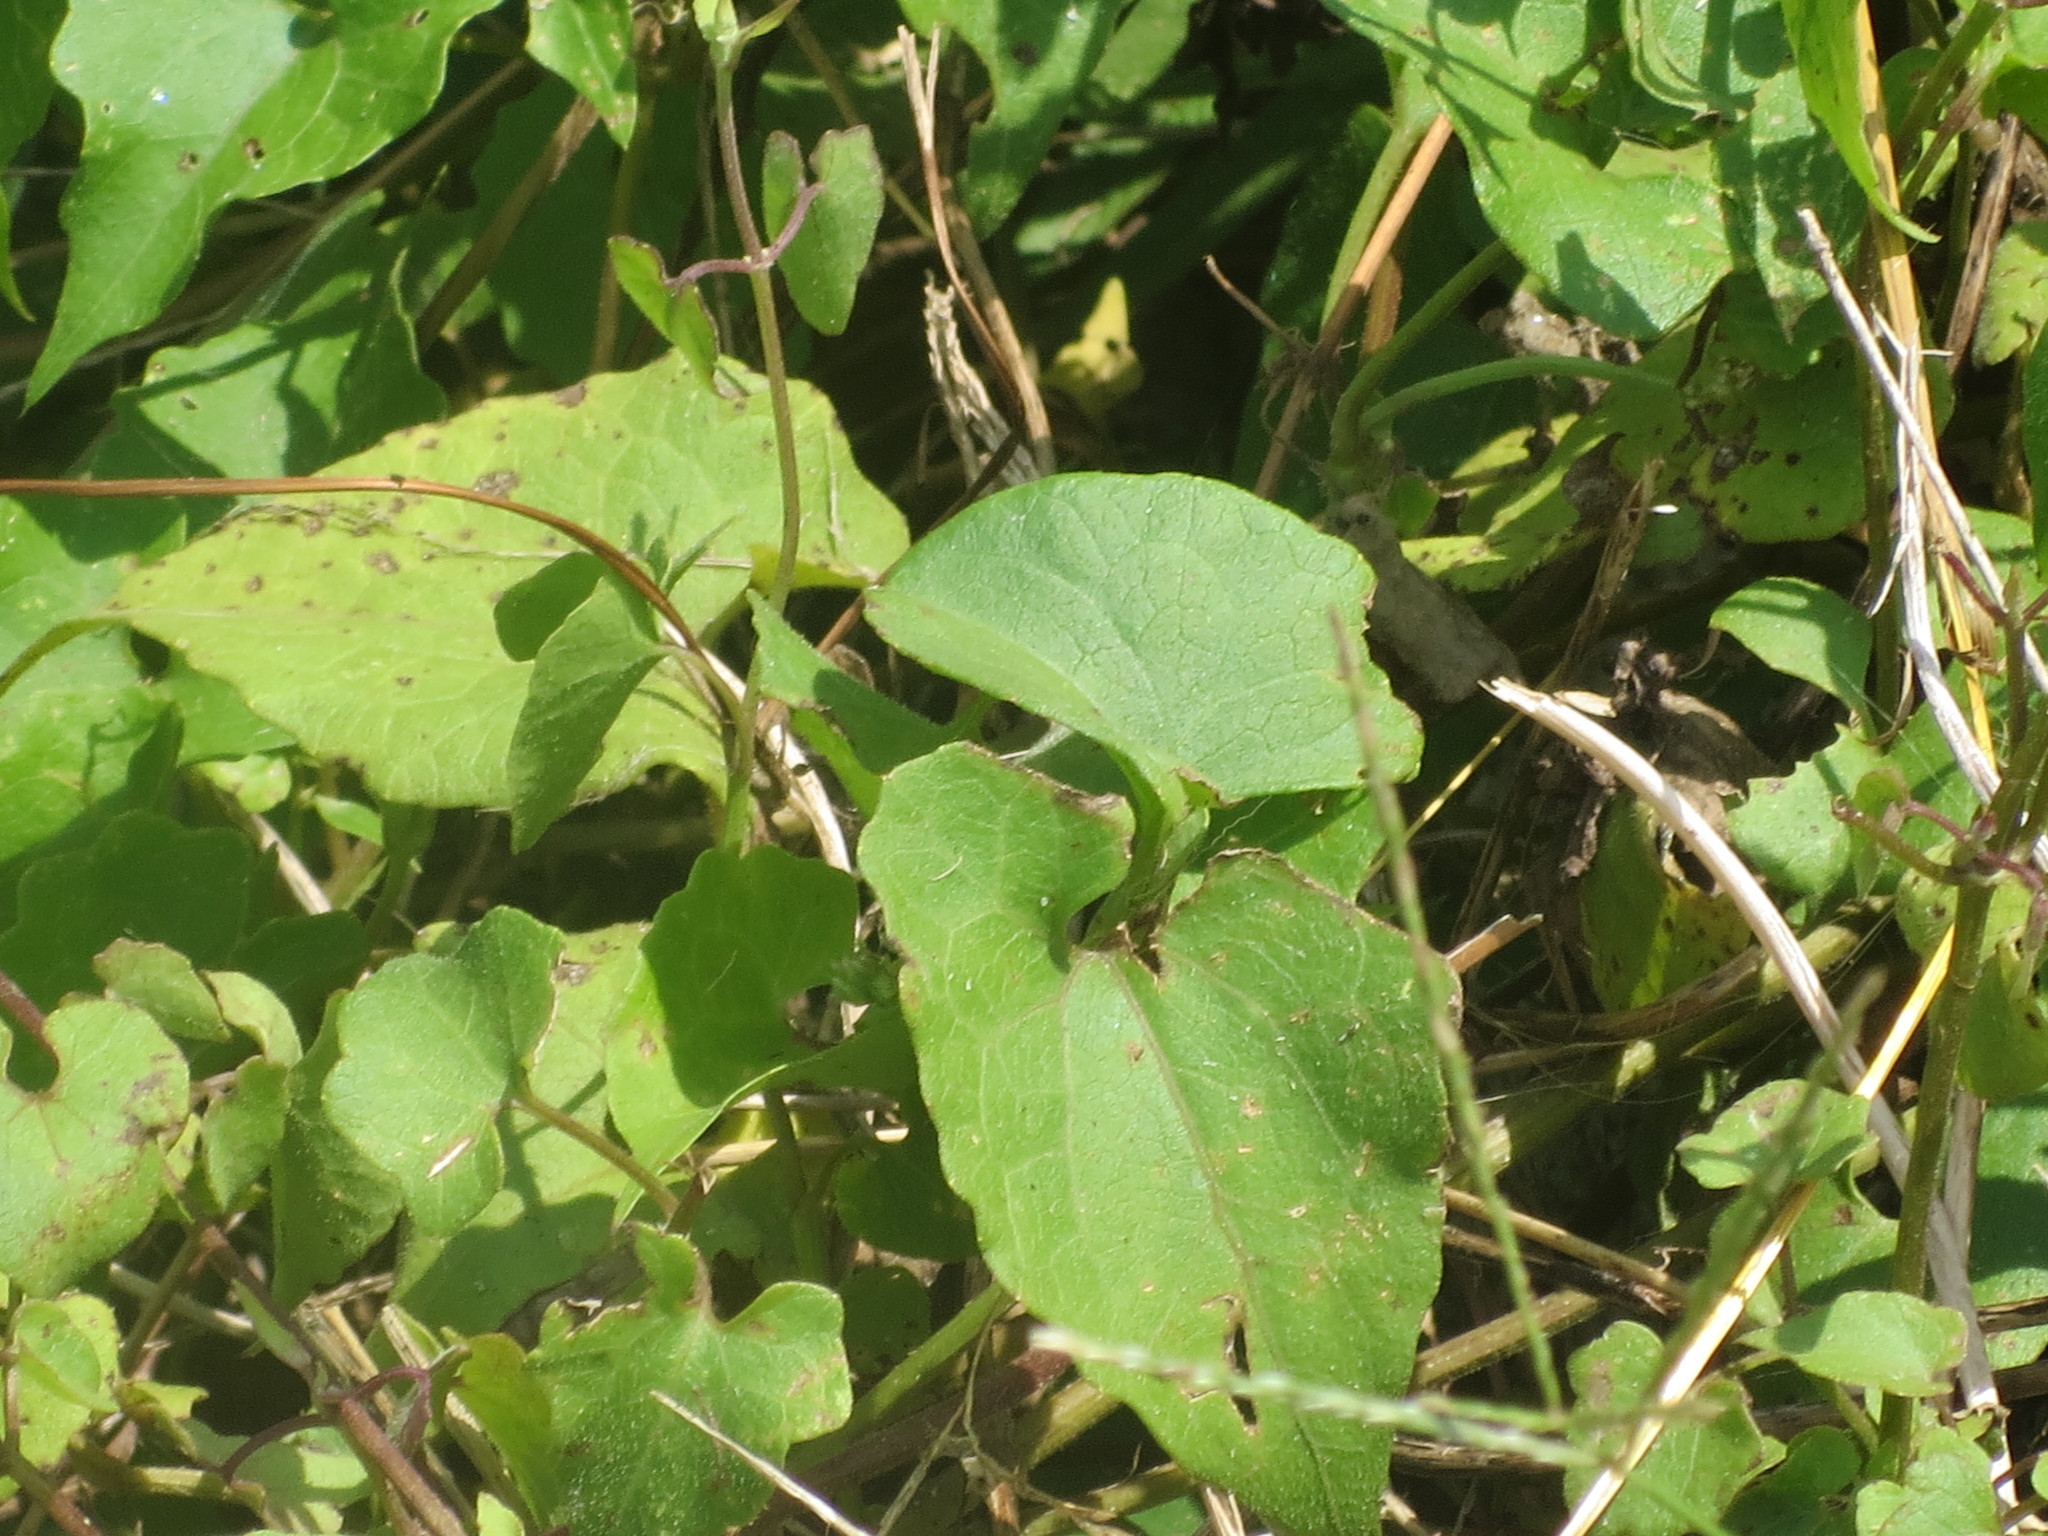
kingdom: Plantae
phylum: Tracheophyta
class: Magnoliopsida
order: Asterales
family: Asteraceae
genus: Mikania
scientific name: Mikania scandens
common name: Climbing hempvine
